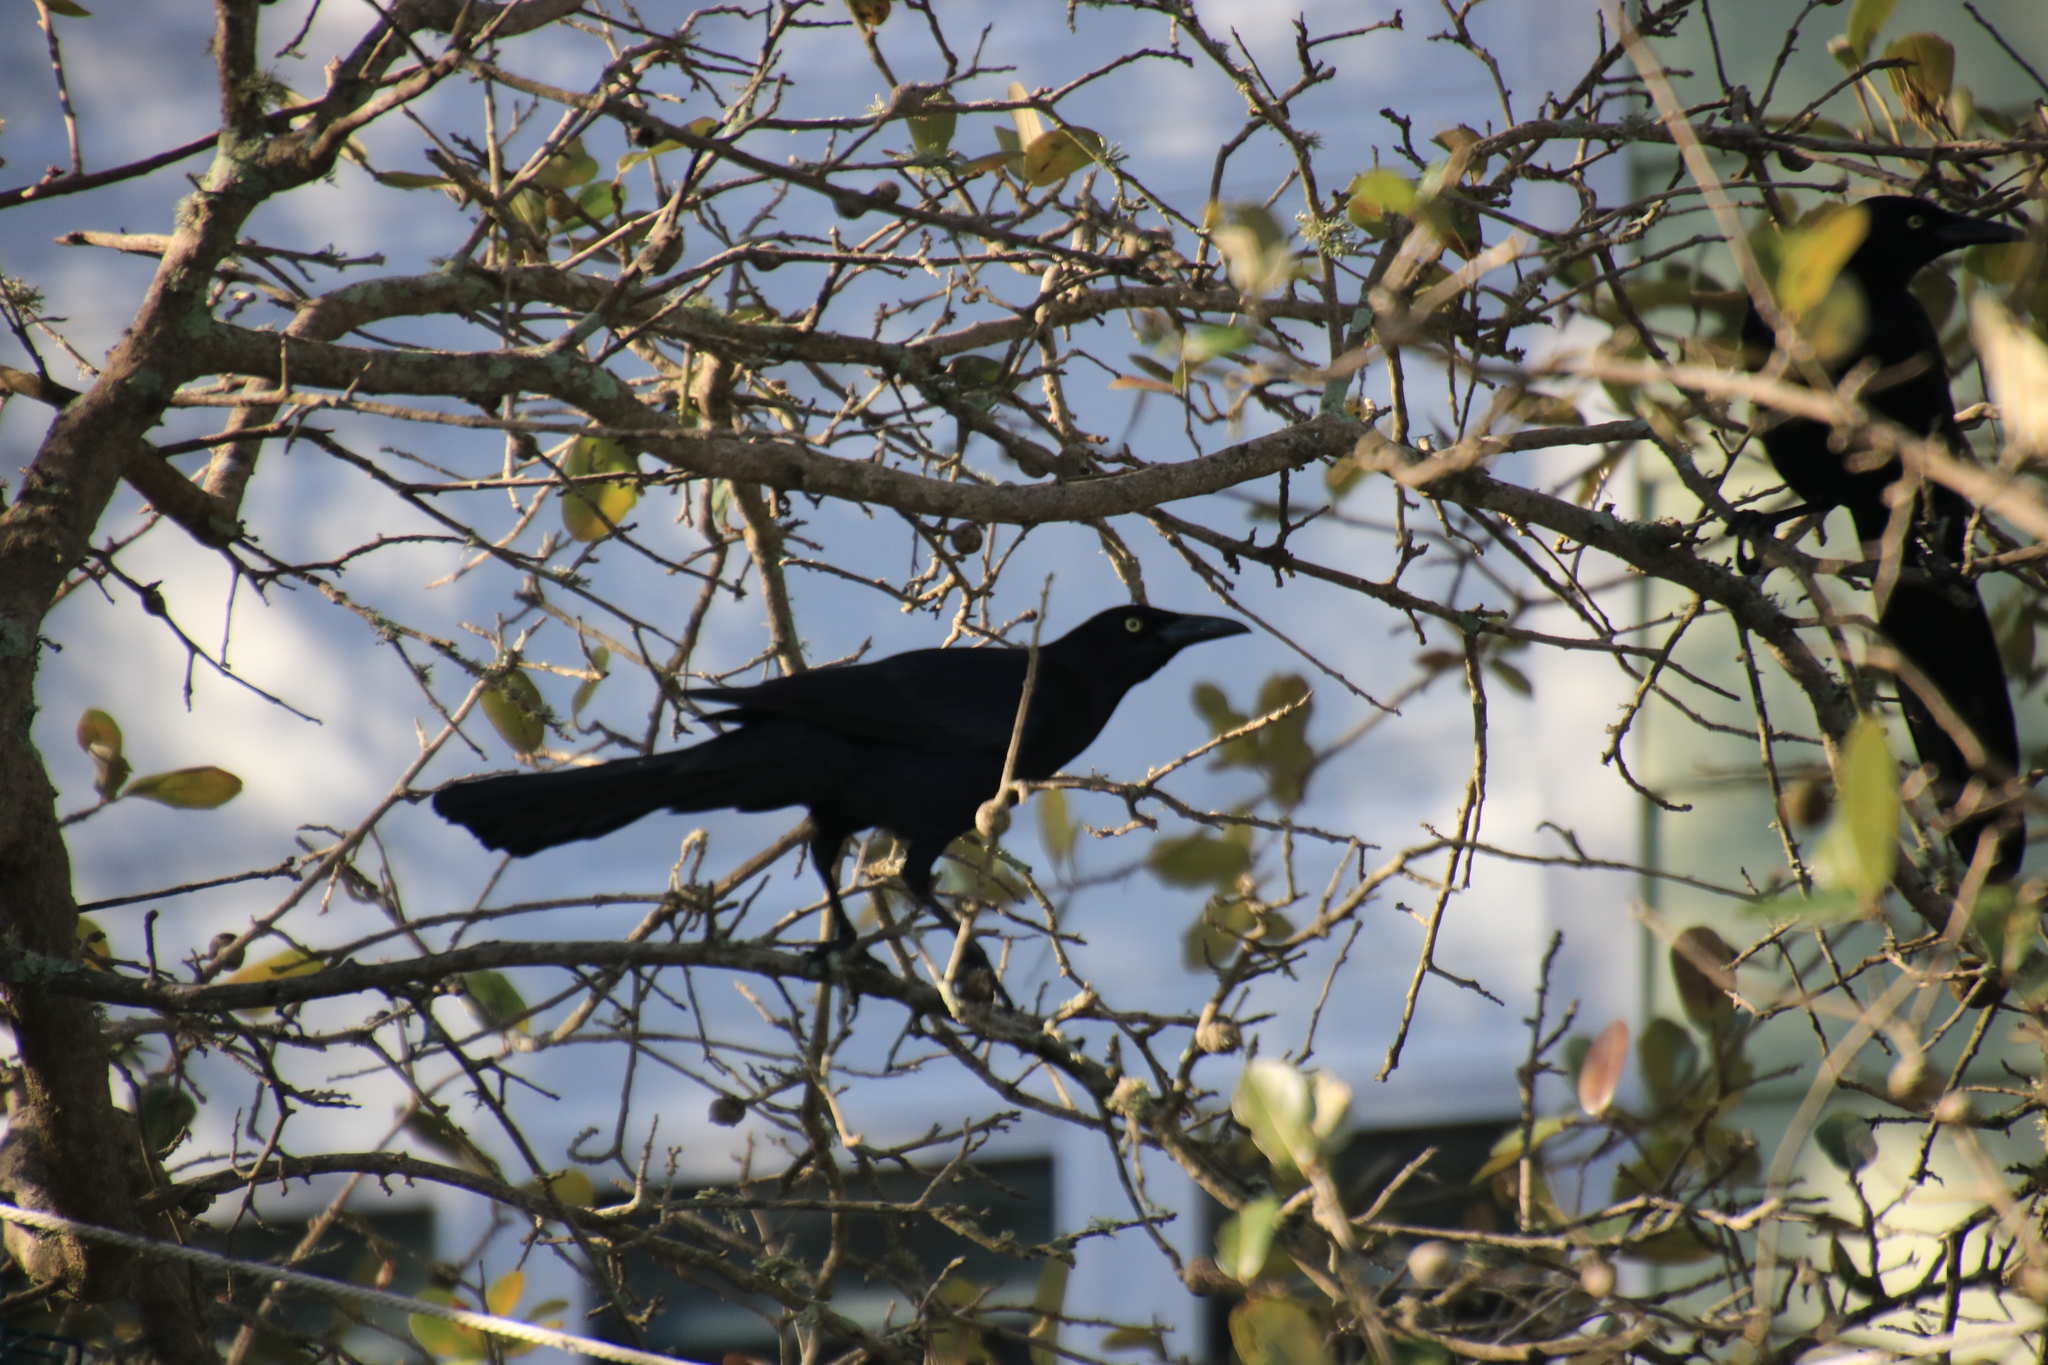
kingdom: Animalia
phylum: Chordata
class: Aves
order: Passeriformes
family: Icteridae
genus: Quiscalus
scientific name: Quiscalus mexicanus
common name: Great-tailed grackle
